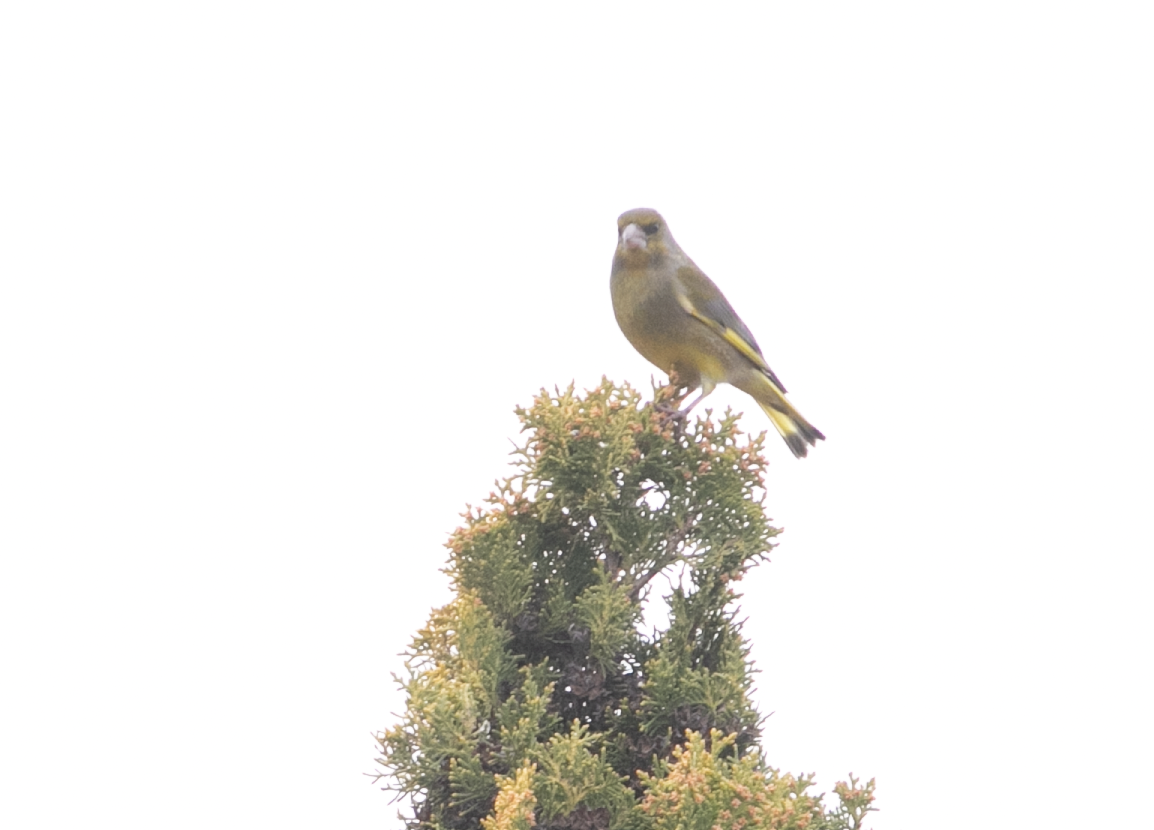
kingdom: Plantae
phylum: Tracheophyta
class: Liliopsida
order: Poales
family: Poaceae
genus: Chloris
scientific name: Chloris chloris
